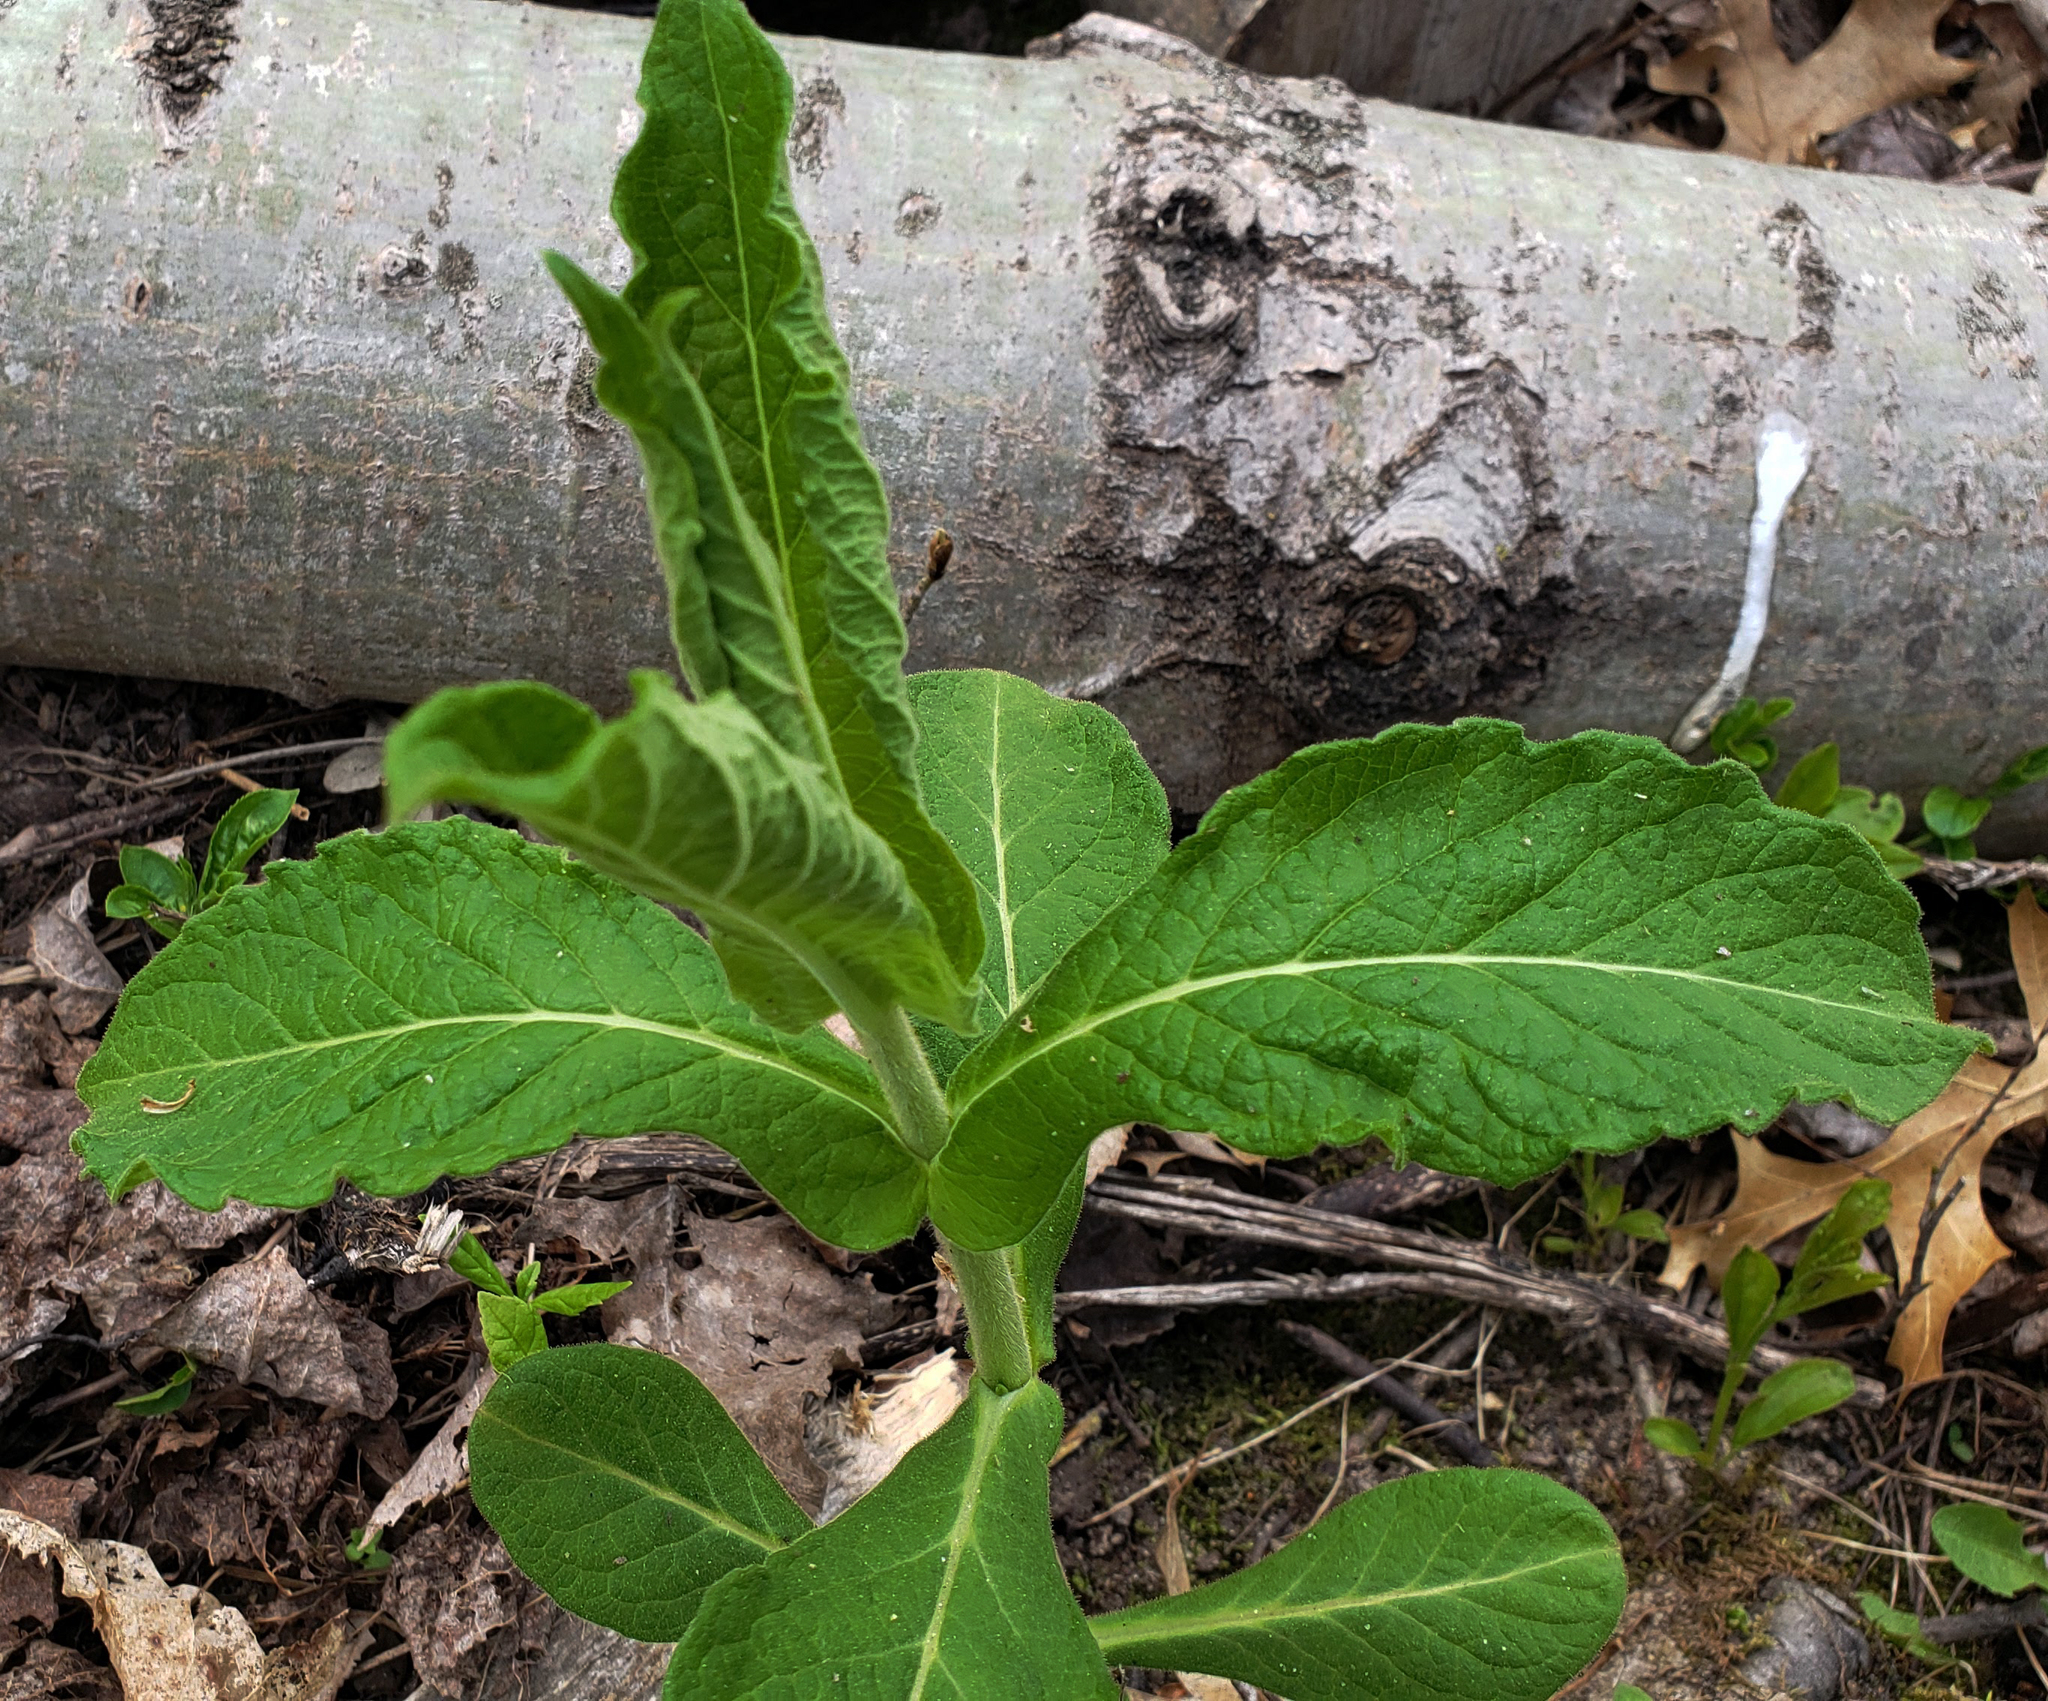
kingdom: Plantae
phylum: Tracheophyta
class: Magnoliopsida
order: Dipsacales
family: Caprifoliaceae
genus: Triosteum
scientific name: Triosteum aurantiacum
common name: Coffee tinker's-weed
